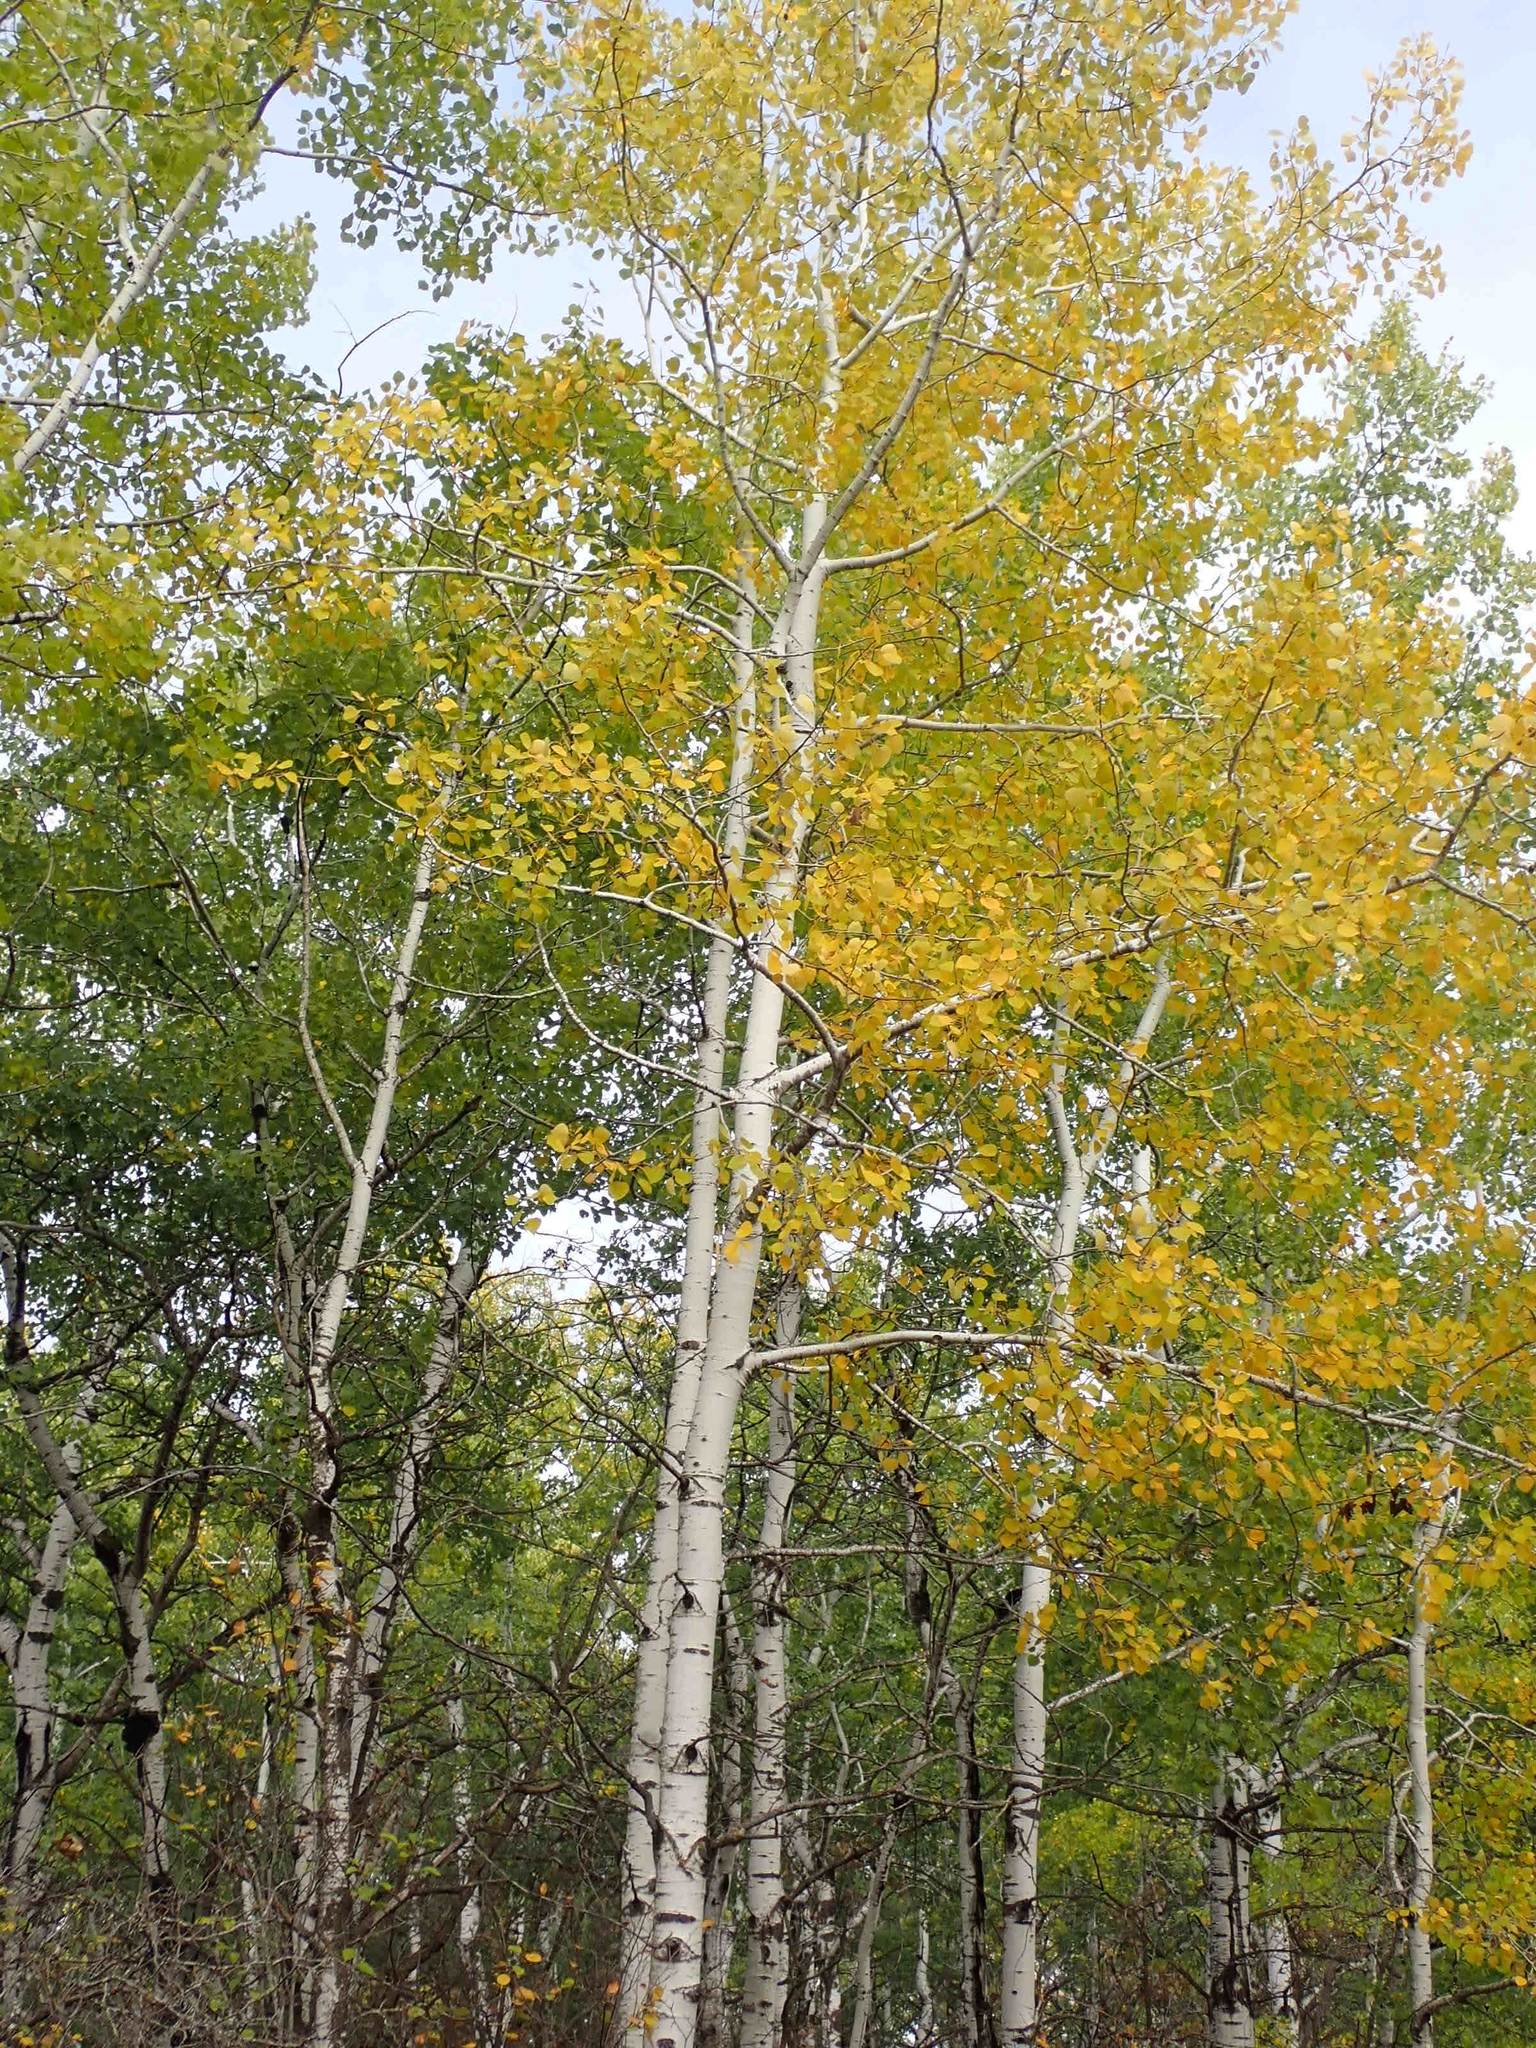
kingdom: Plantae
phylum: Tracheophyta
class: Magnoliopsida
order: Malpighiales
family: Salicaceae
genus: Populus
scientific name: Populus tremuloides
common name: Quaking aspen
